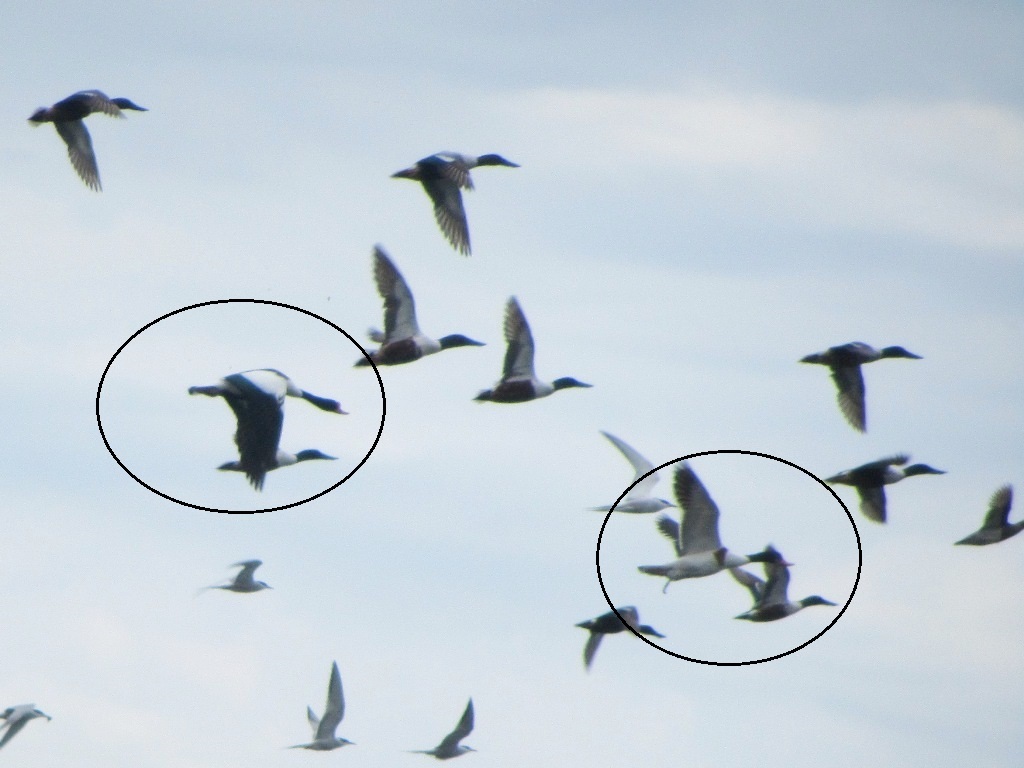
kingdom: Animalia
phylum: Chordata
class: Aves
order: Anseriformes
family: Anatidae
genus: Tadorna
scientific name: Tadorna tadorna
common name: Common shelduck
